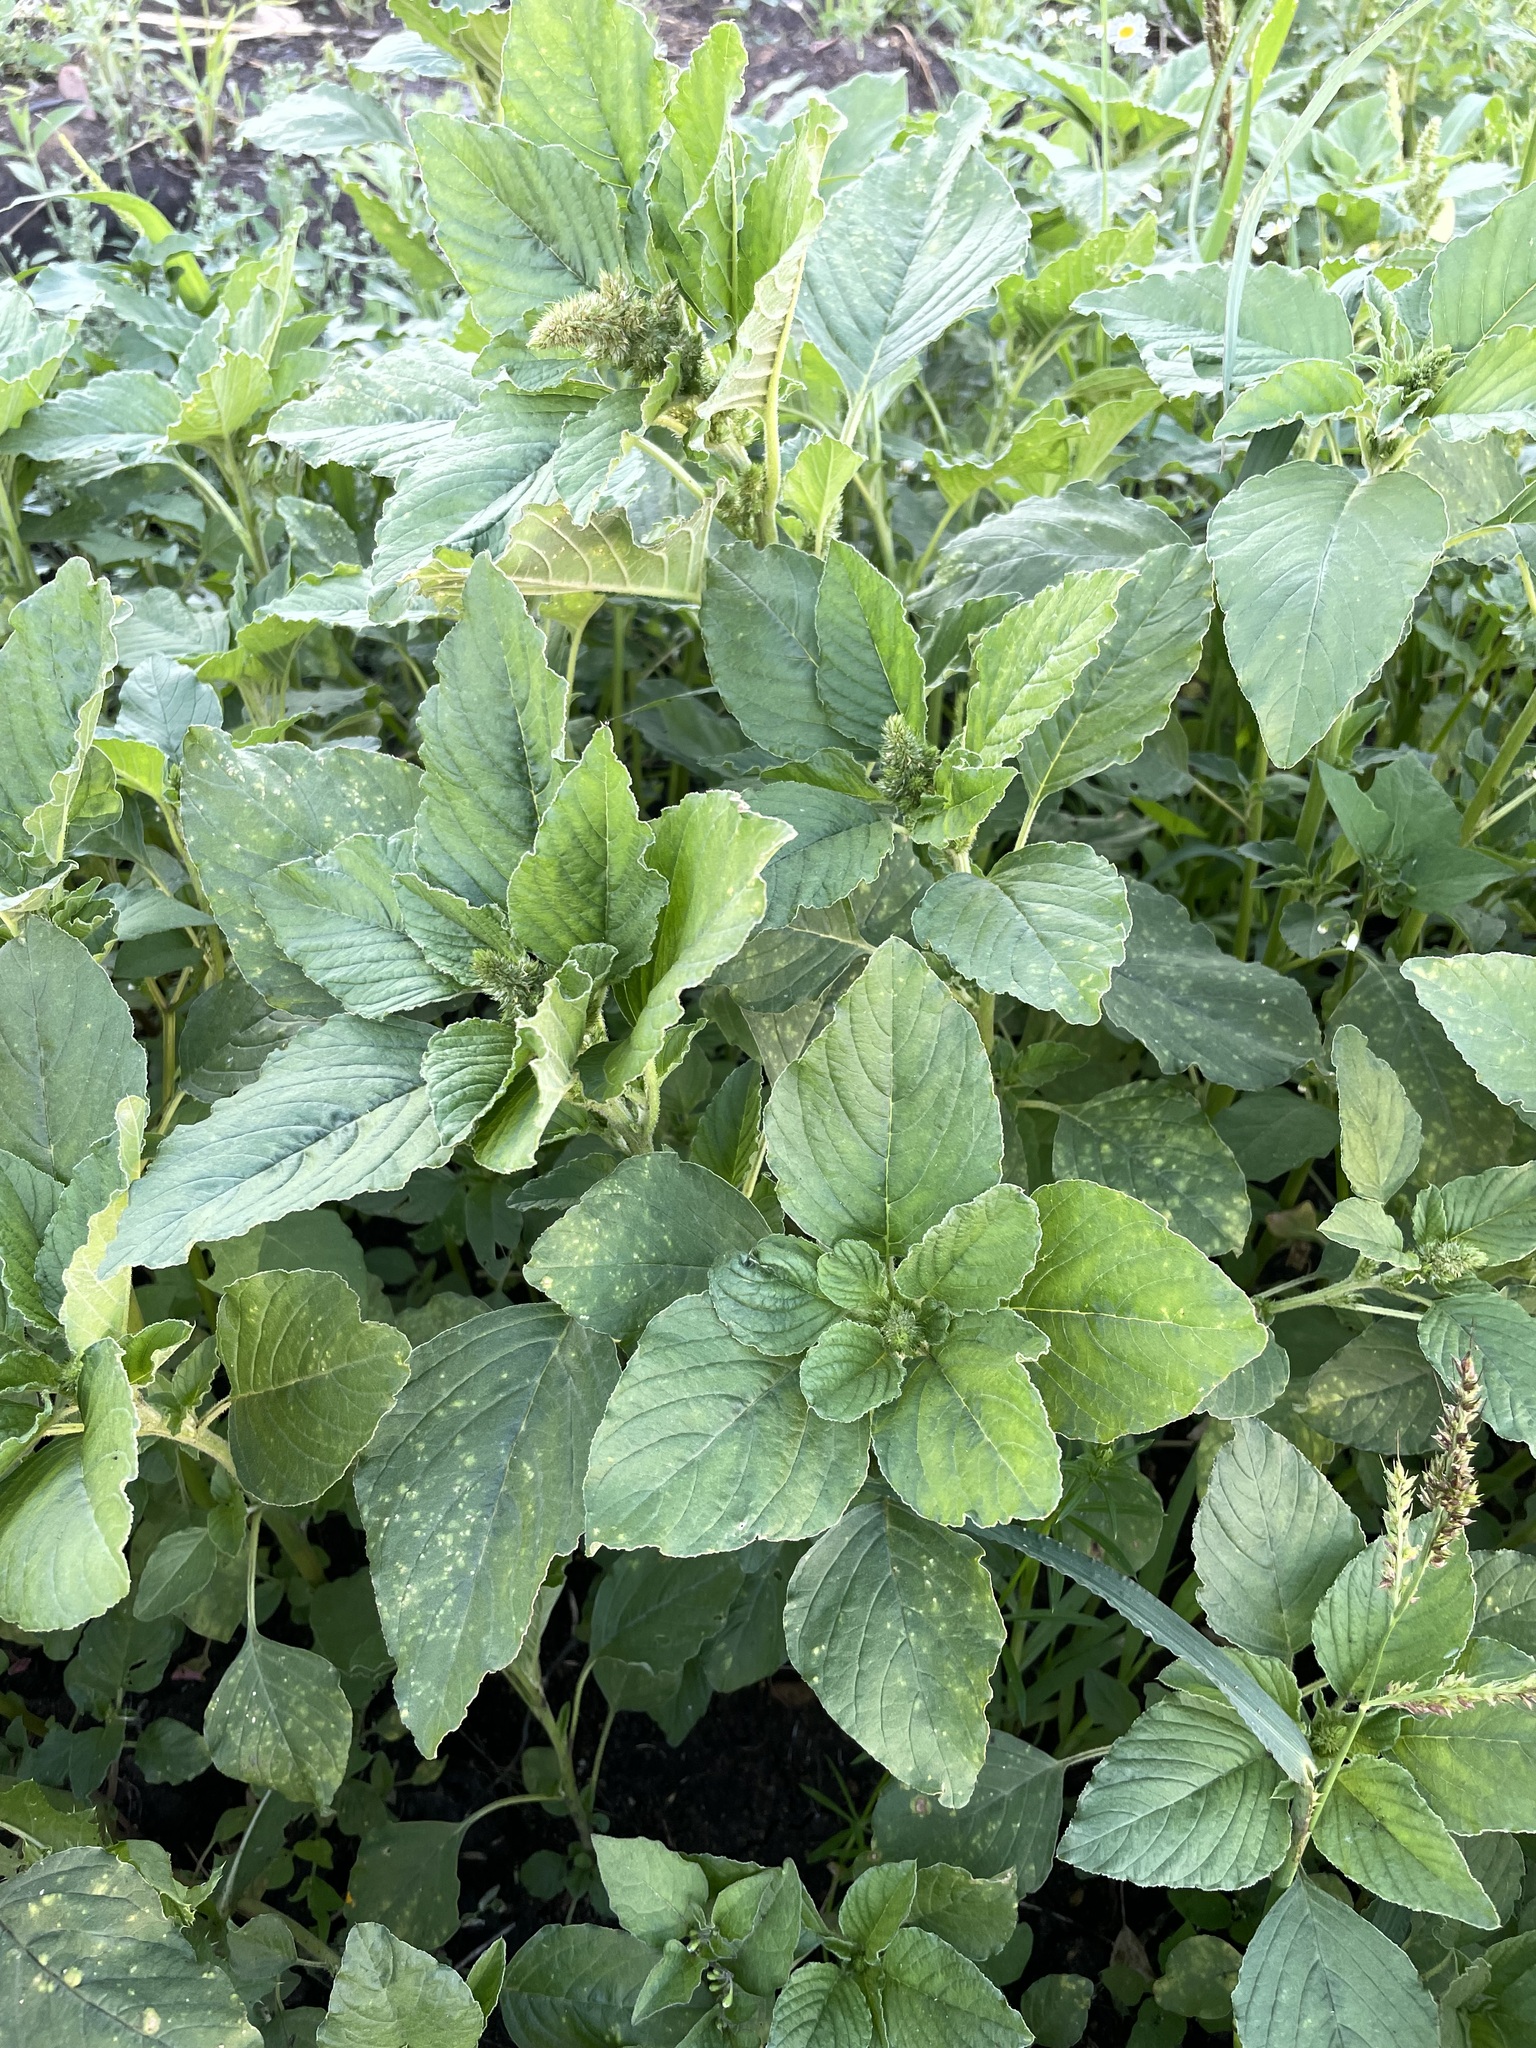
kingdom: Plantae
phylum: Tracheophyta
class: Magnoliopsida
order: Caryophyllales
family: Amaranthaceae
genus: Amaranthus
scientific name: Amaranthus retroflexus
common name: Redroot amaranth
